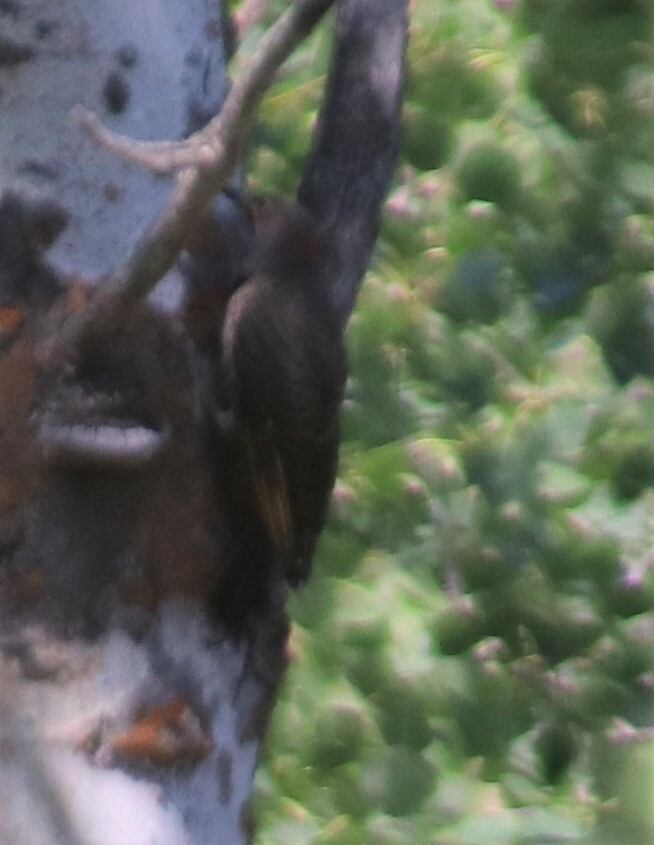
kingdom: Animalia
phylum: Chordata
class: Aves
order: Piciformes
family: Picidae
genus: Colaptes
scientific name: Colaptes auratus
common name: Northern flicker
